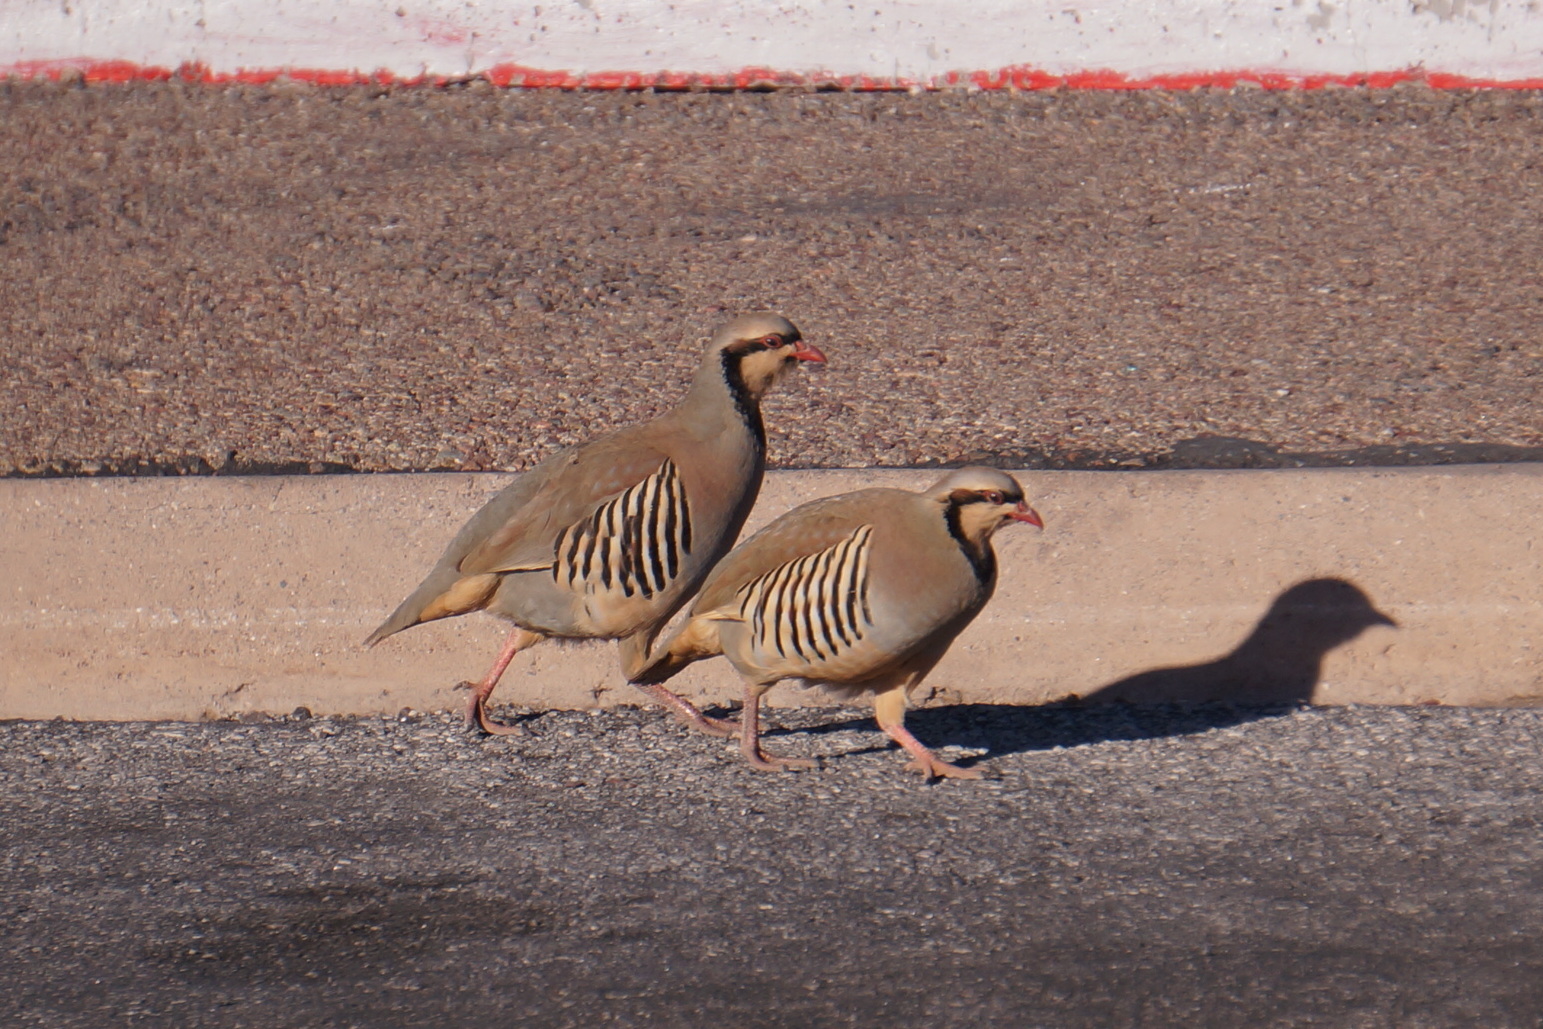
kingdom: Animalia
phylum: Chordata
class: Aves
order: Galliformes
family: Phasianidae
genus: Alectoris
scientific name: Alectoris chukar
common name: Chukar
